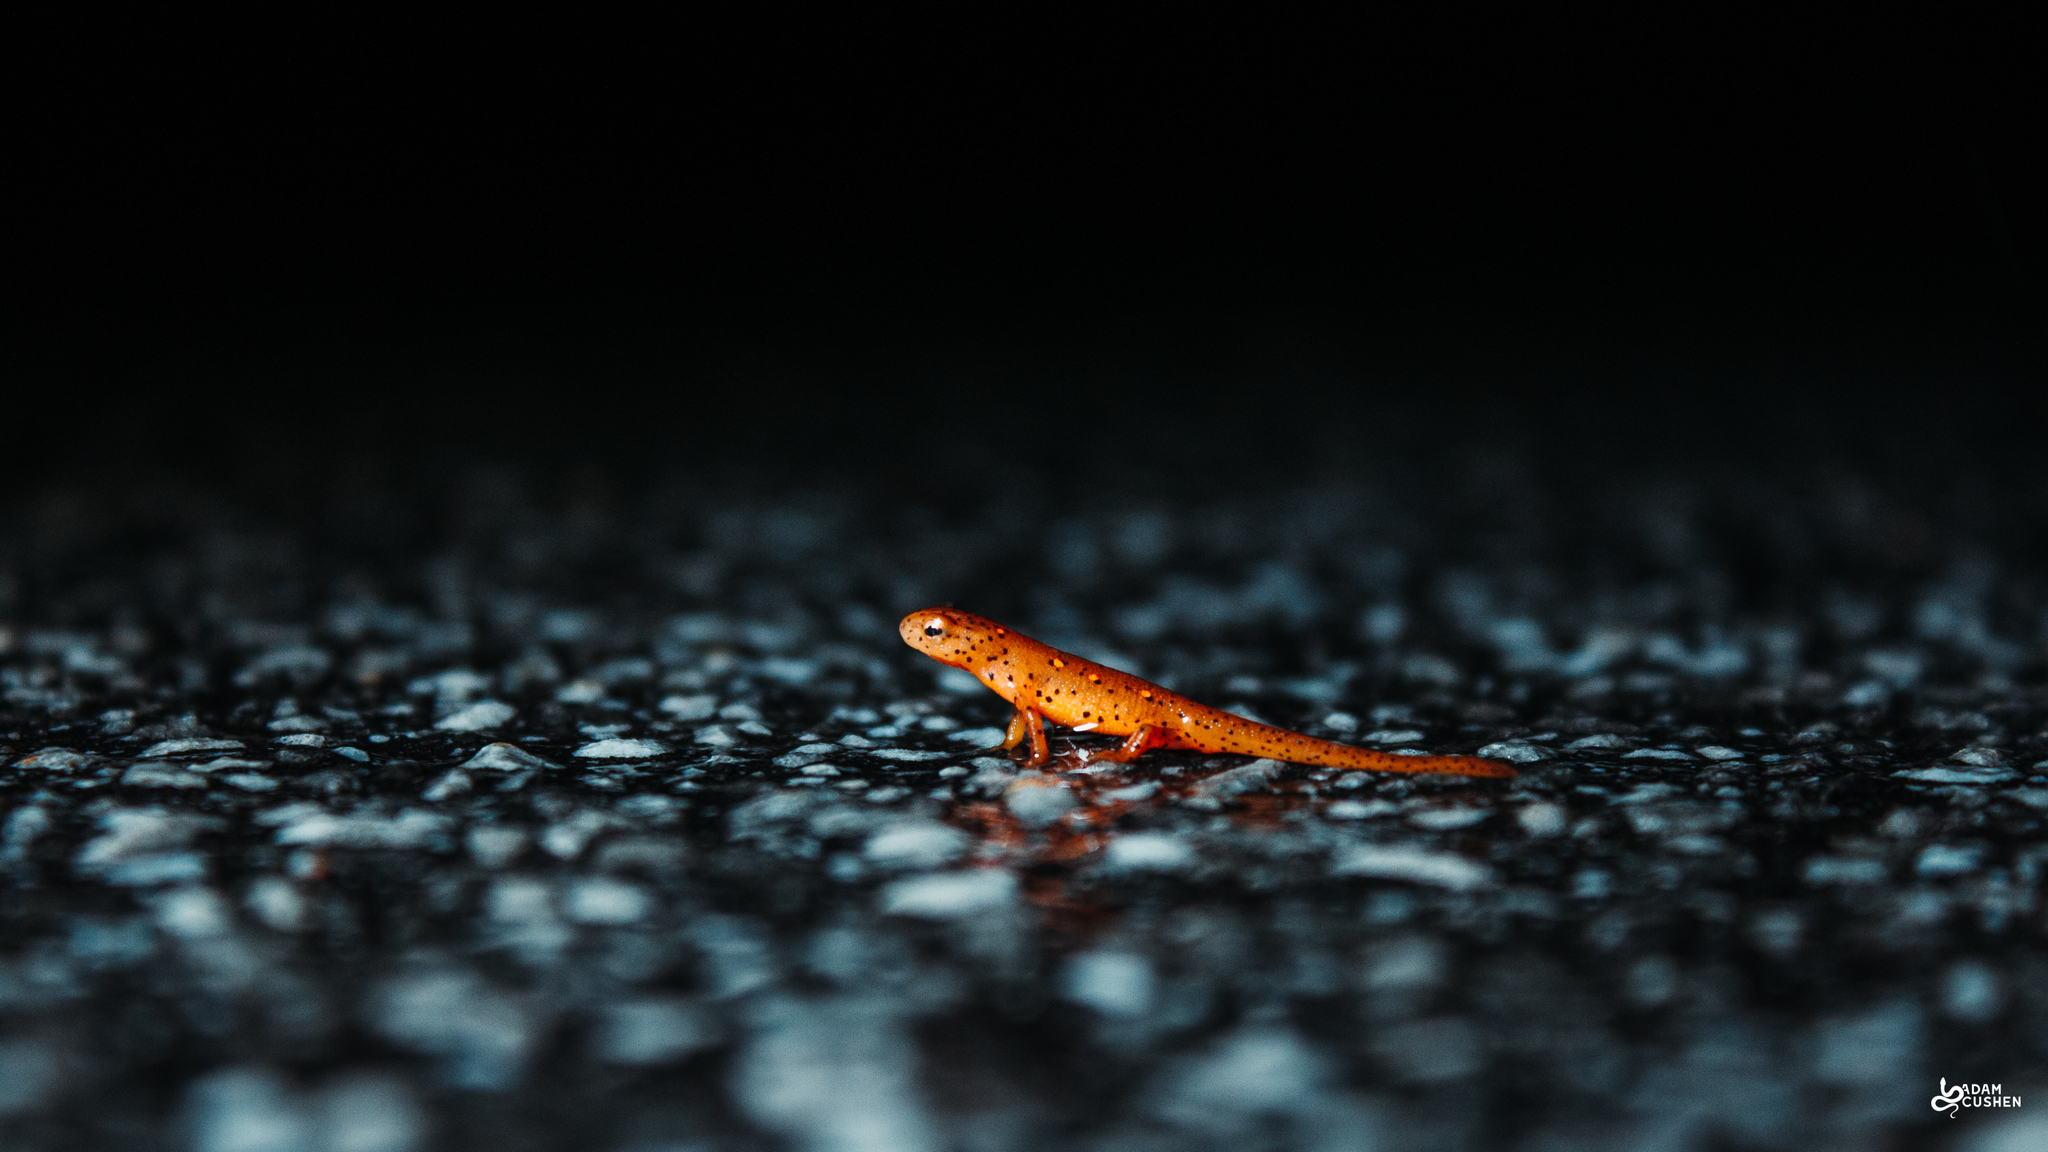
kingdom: Animalia
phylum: Chordata
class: Amphibia
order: Caudata
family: Salamandridae
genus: Notophthalmus
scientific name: Notophthalmus viridescens
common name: Eastern newt
